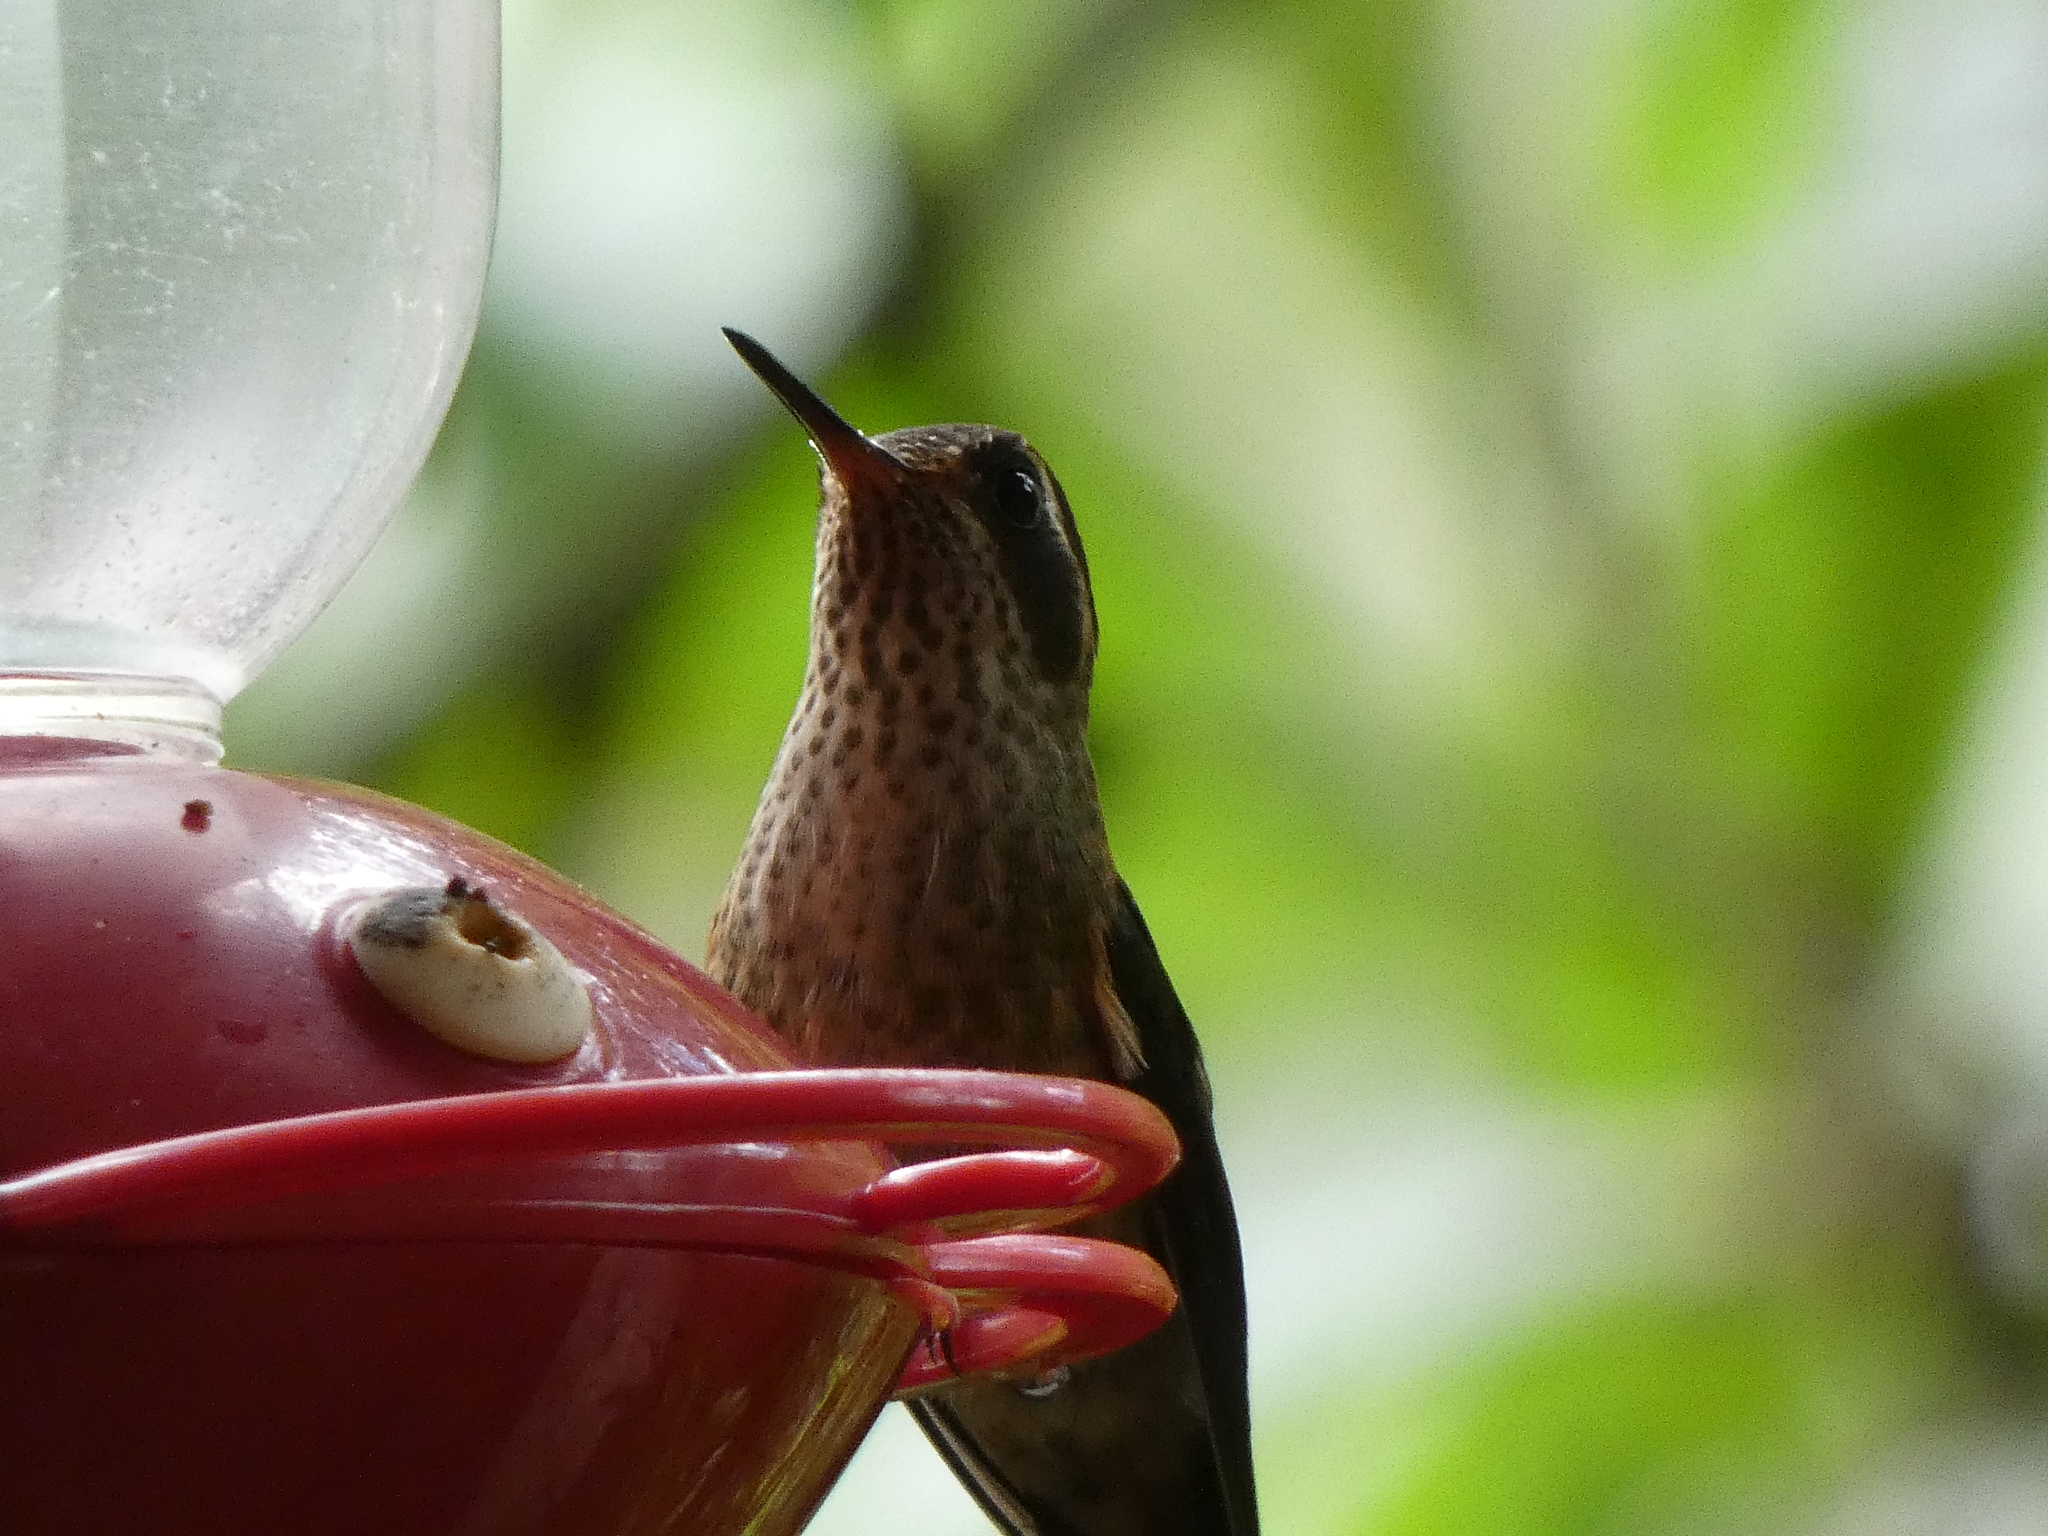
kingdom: Animalia
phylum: Chordata
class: Aves
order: Apodiformes
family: Trochilidae
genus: Adelomyia
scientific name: Adelomyia melanogenys
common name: Speckled hummingbird
